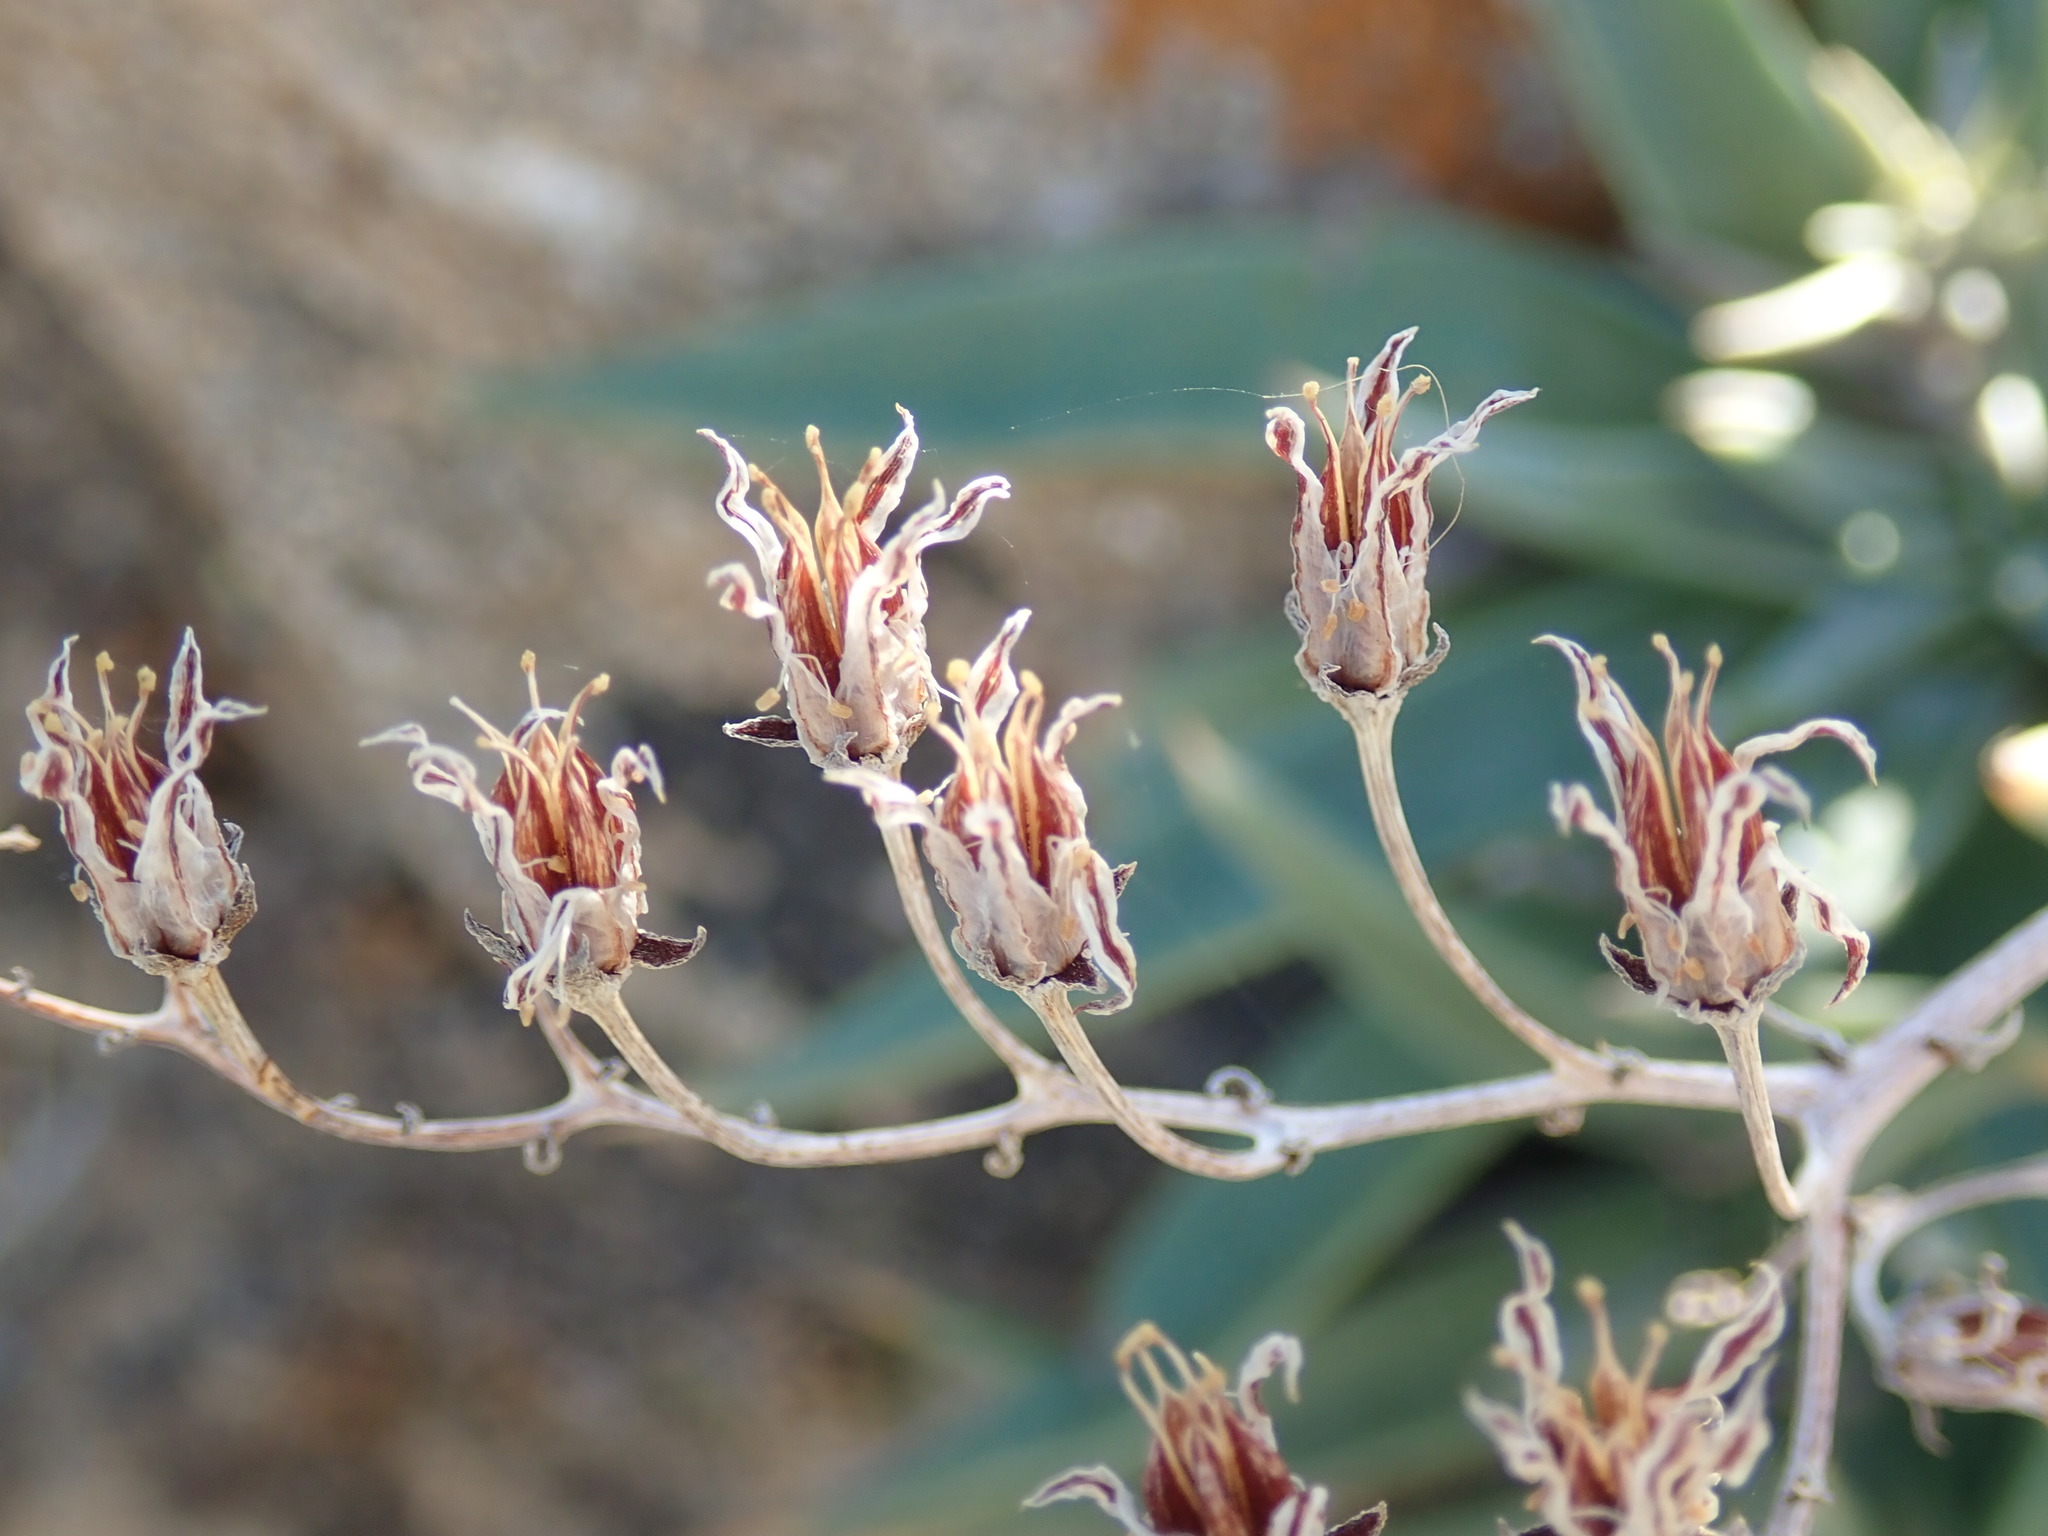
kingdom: Plantae
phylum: Tracheophyta
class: Magnoliopsida
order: Saxifragales
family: Crassulaceae
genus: Dudleya
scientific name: Dudleya saxosa
